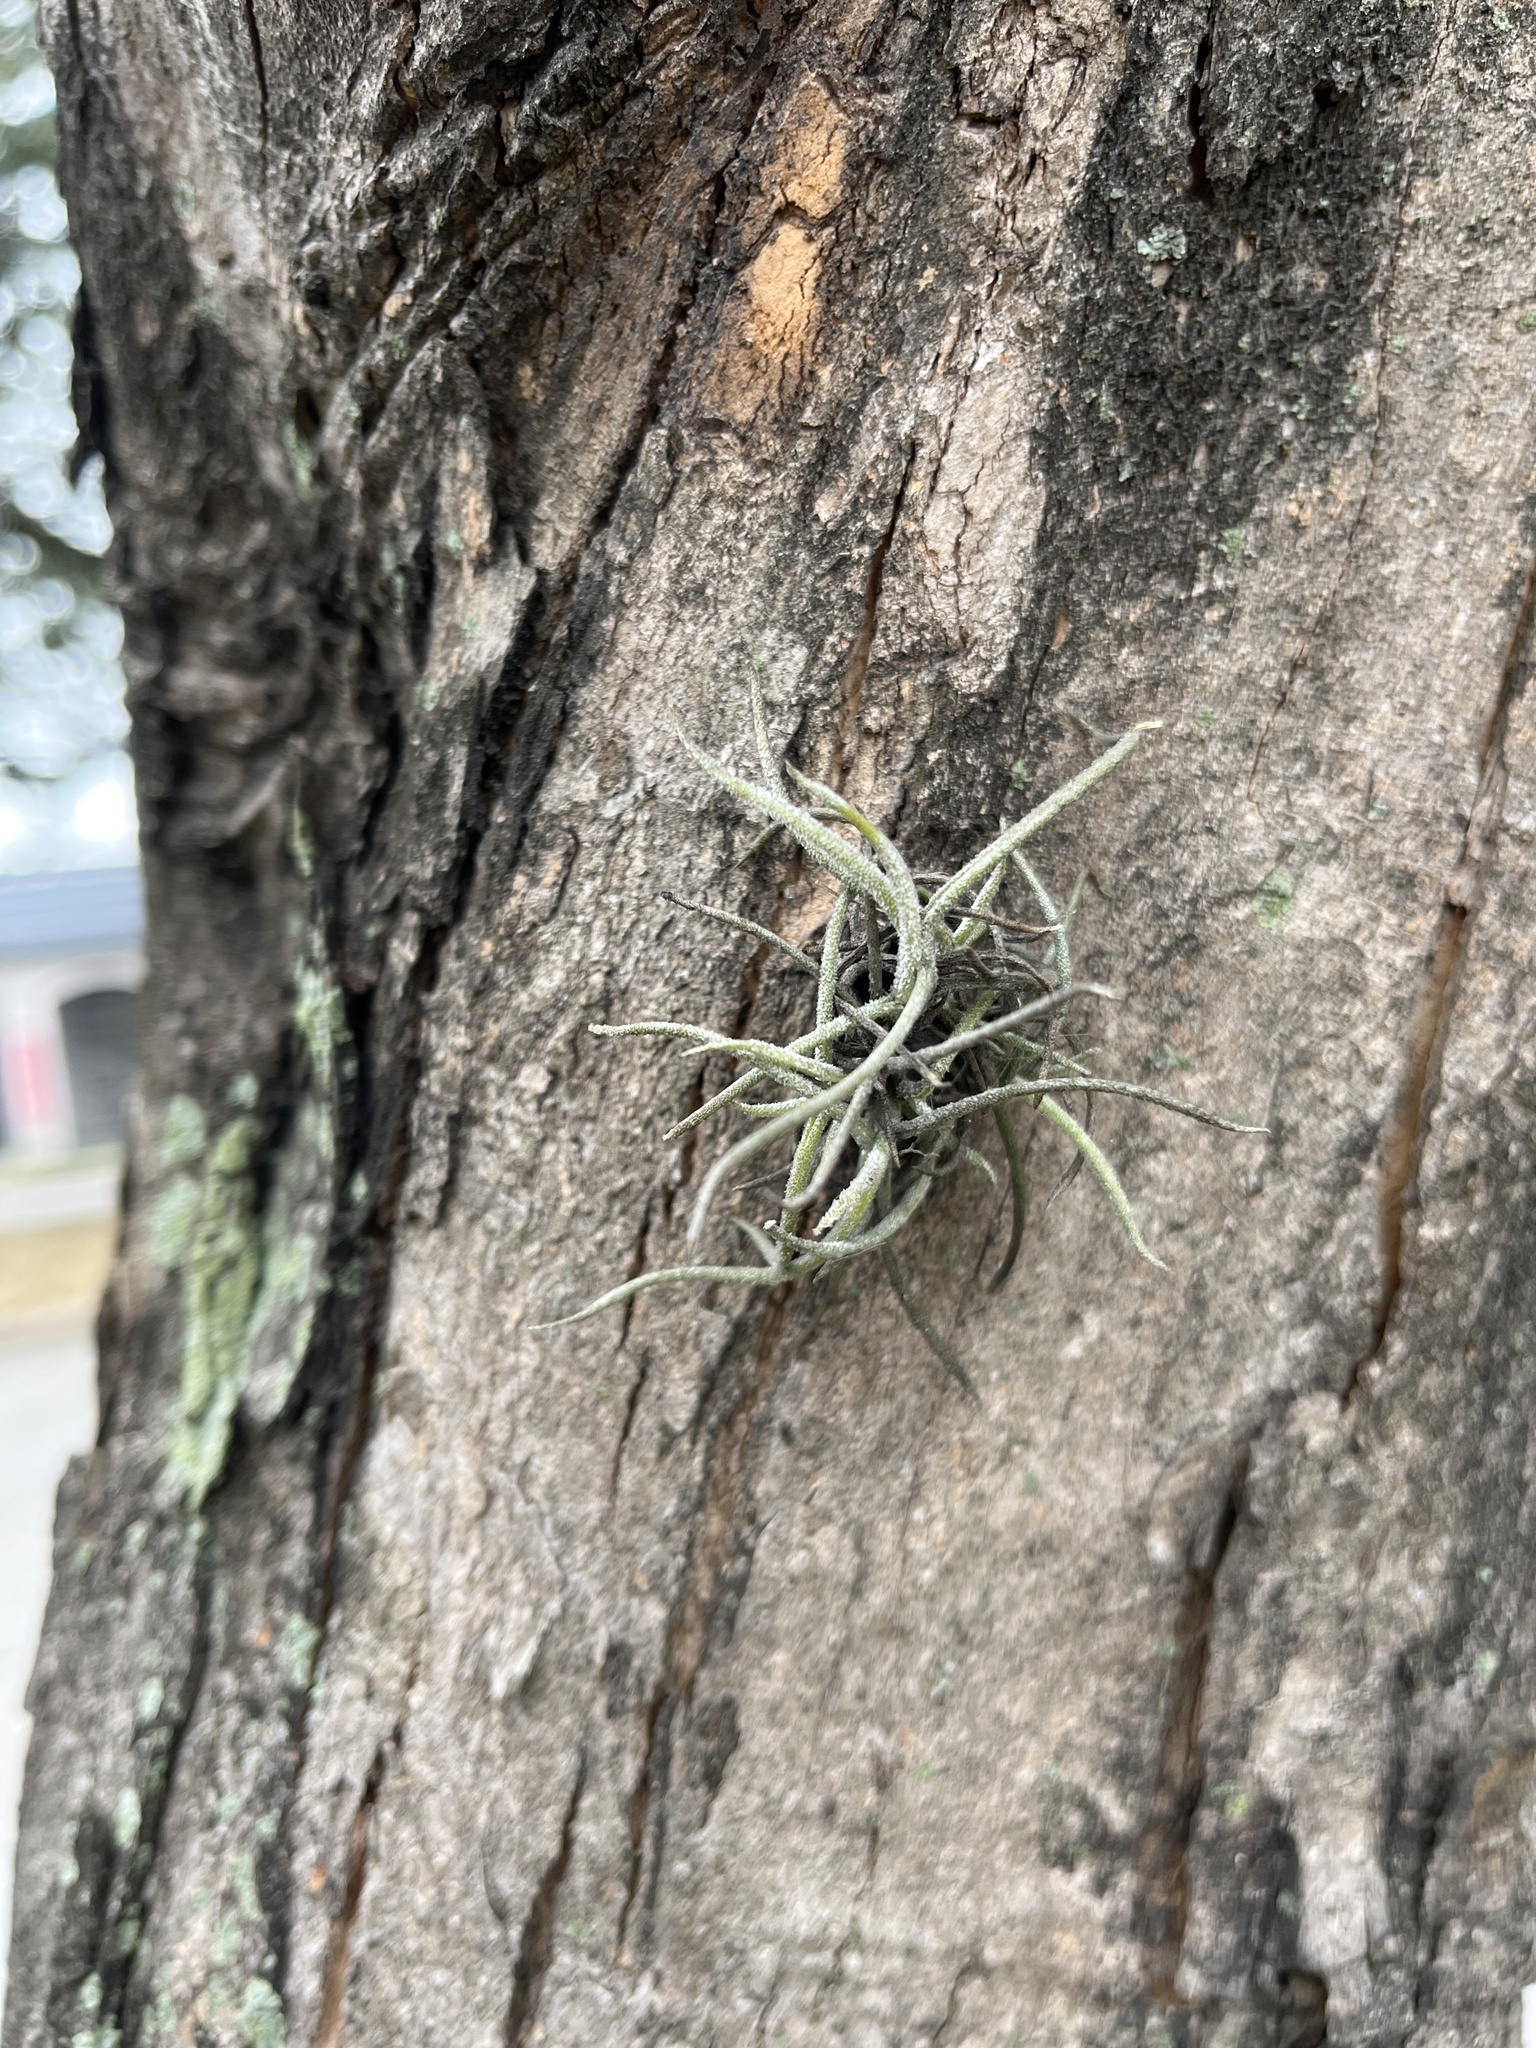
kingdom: Plantae
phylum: Tracheophyta
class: Liliopsida
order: Poales
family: Bromeliaceae
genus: Tillandsia
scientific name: Tillandsia recurvata
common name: Small ballmoss
